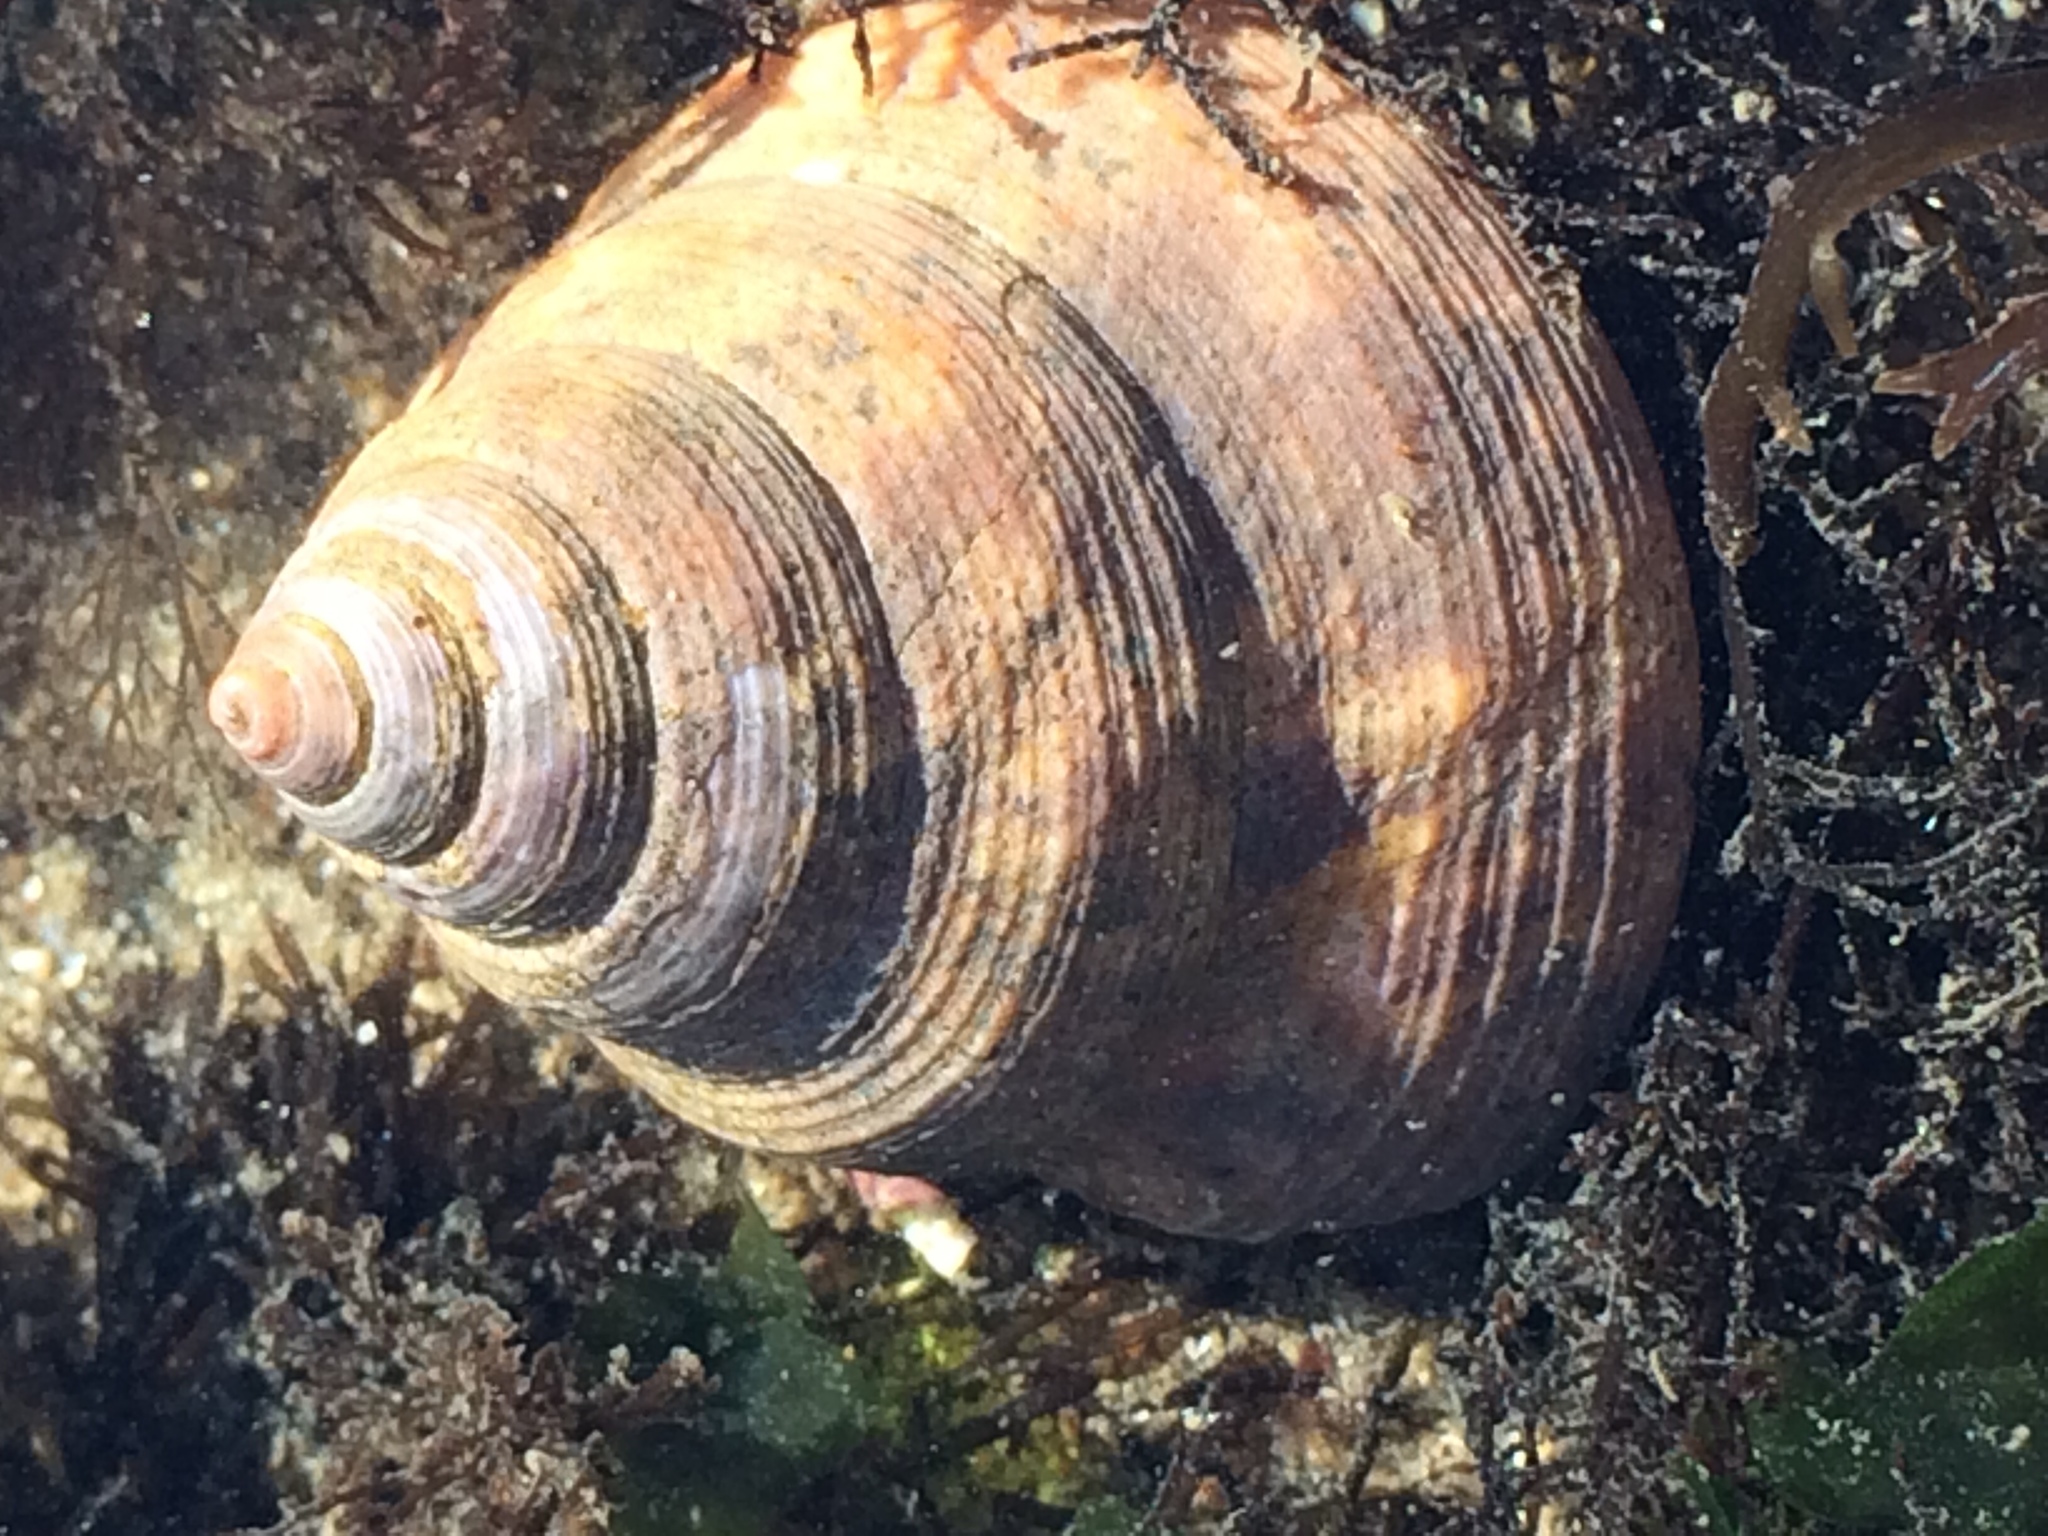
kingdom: Animalia
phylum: Mollusca
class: Gastropoda
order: Trochida
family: Calliostomatidae
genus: Calliostoma
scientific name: Calliostoma ligatum
